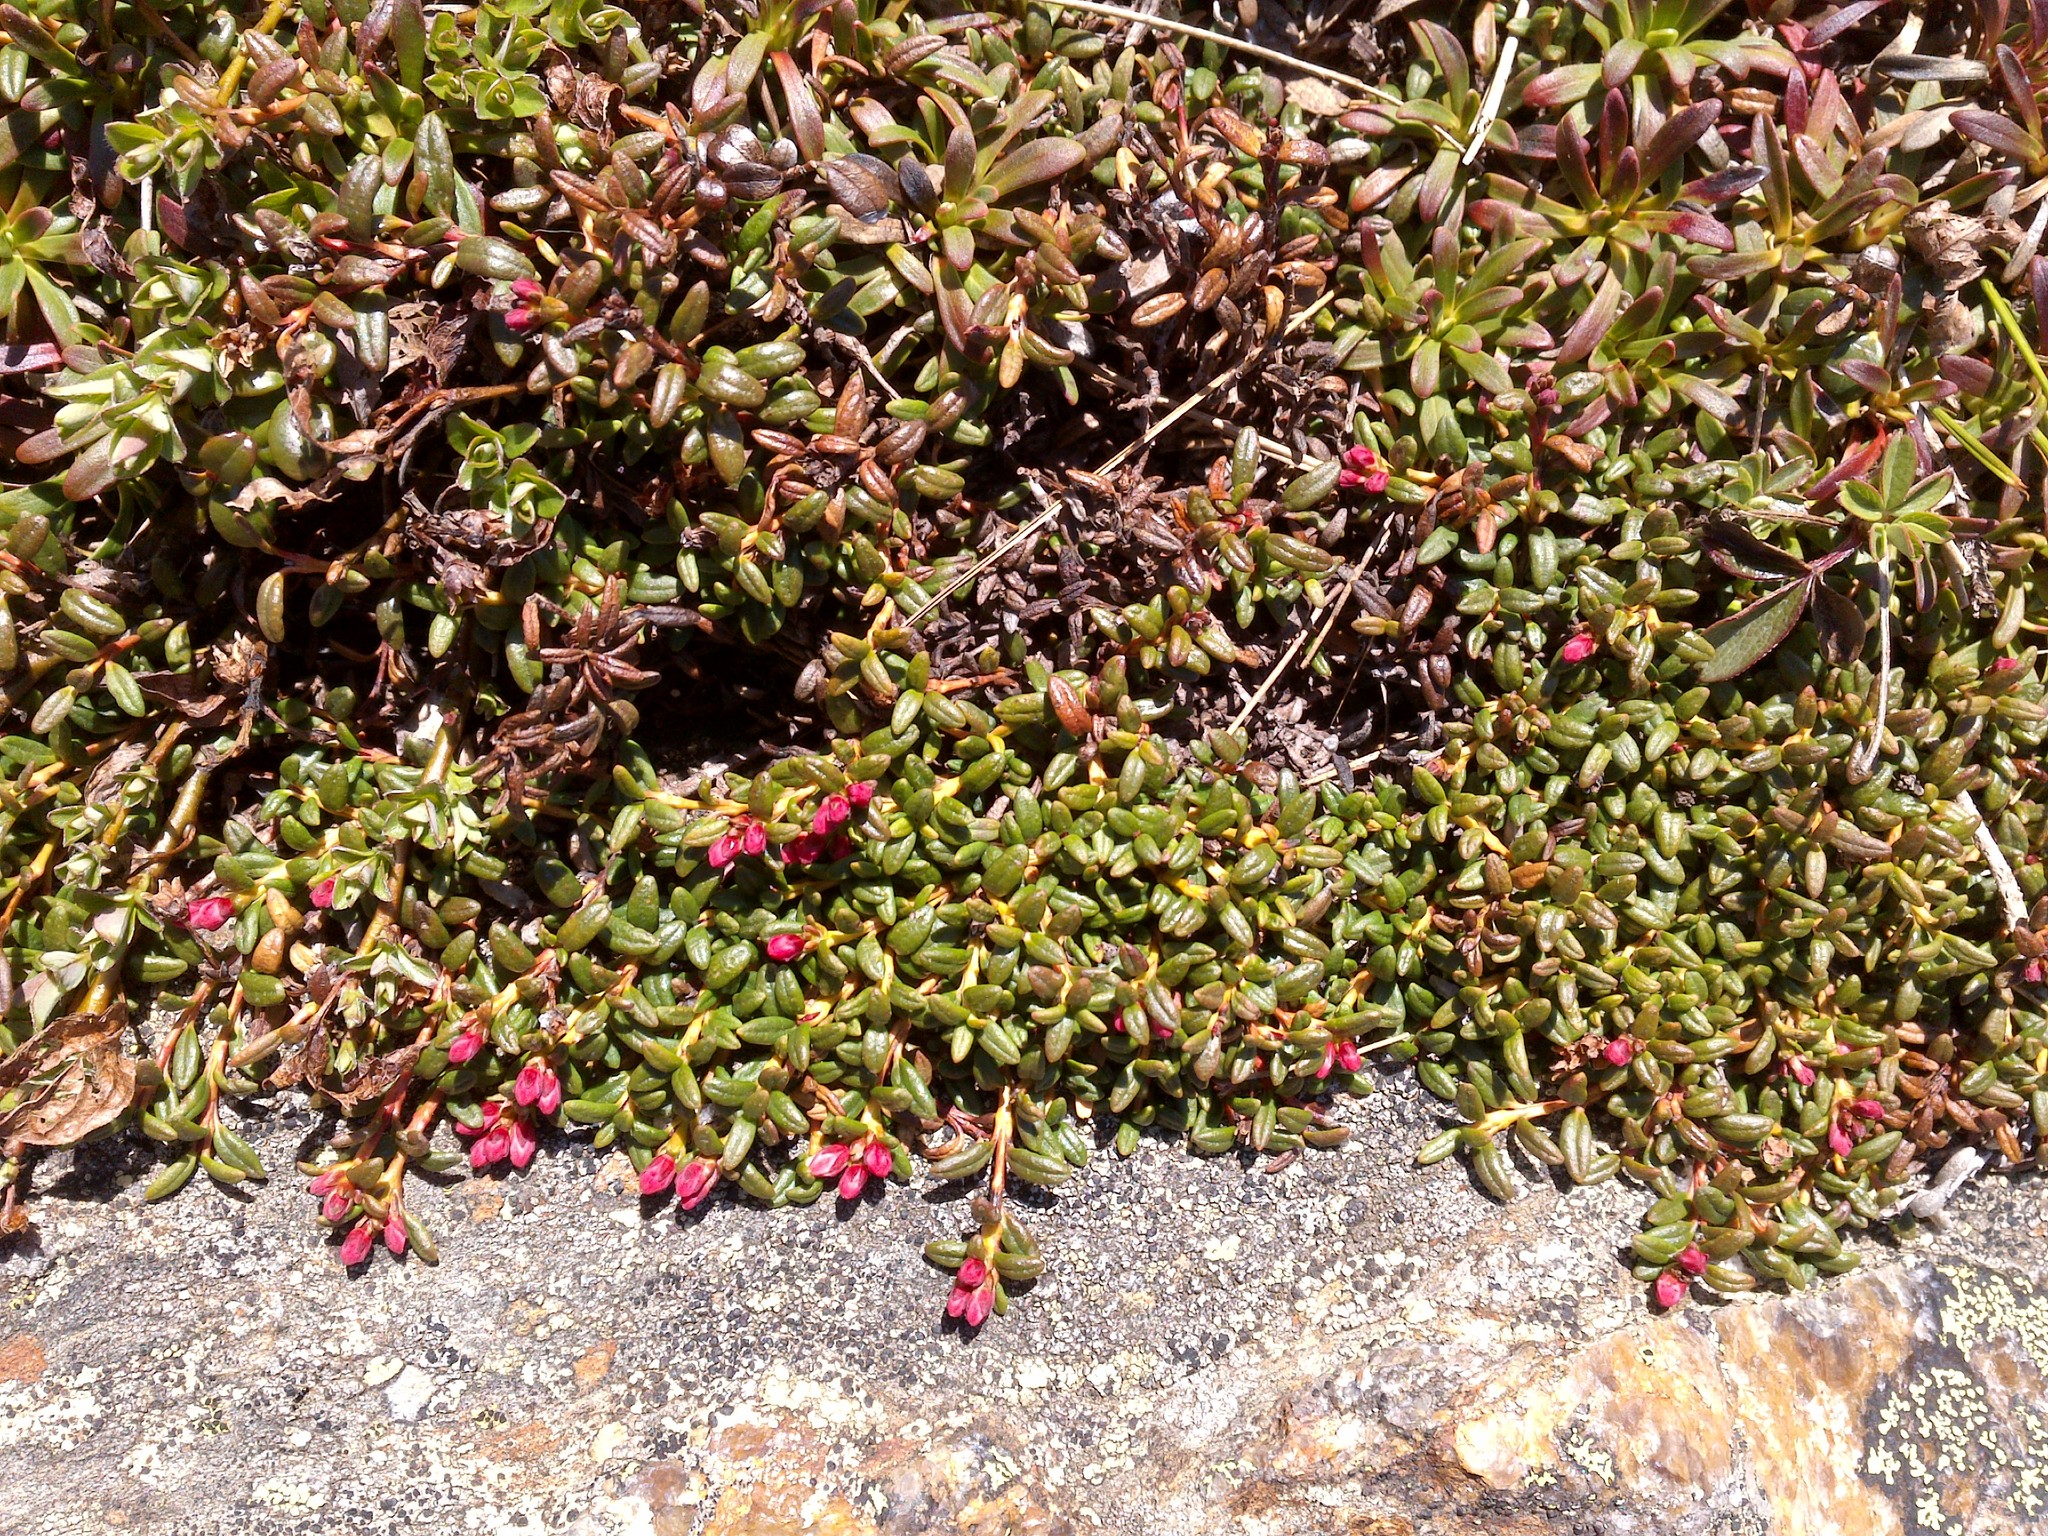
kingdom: Plantae
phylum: Tracheophyta
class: Magnoliopsida
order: Ericales
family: Ericaceae
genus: Kalmia
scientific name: Kalmia procumbens
